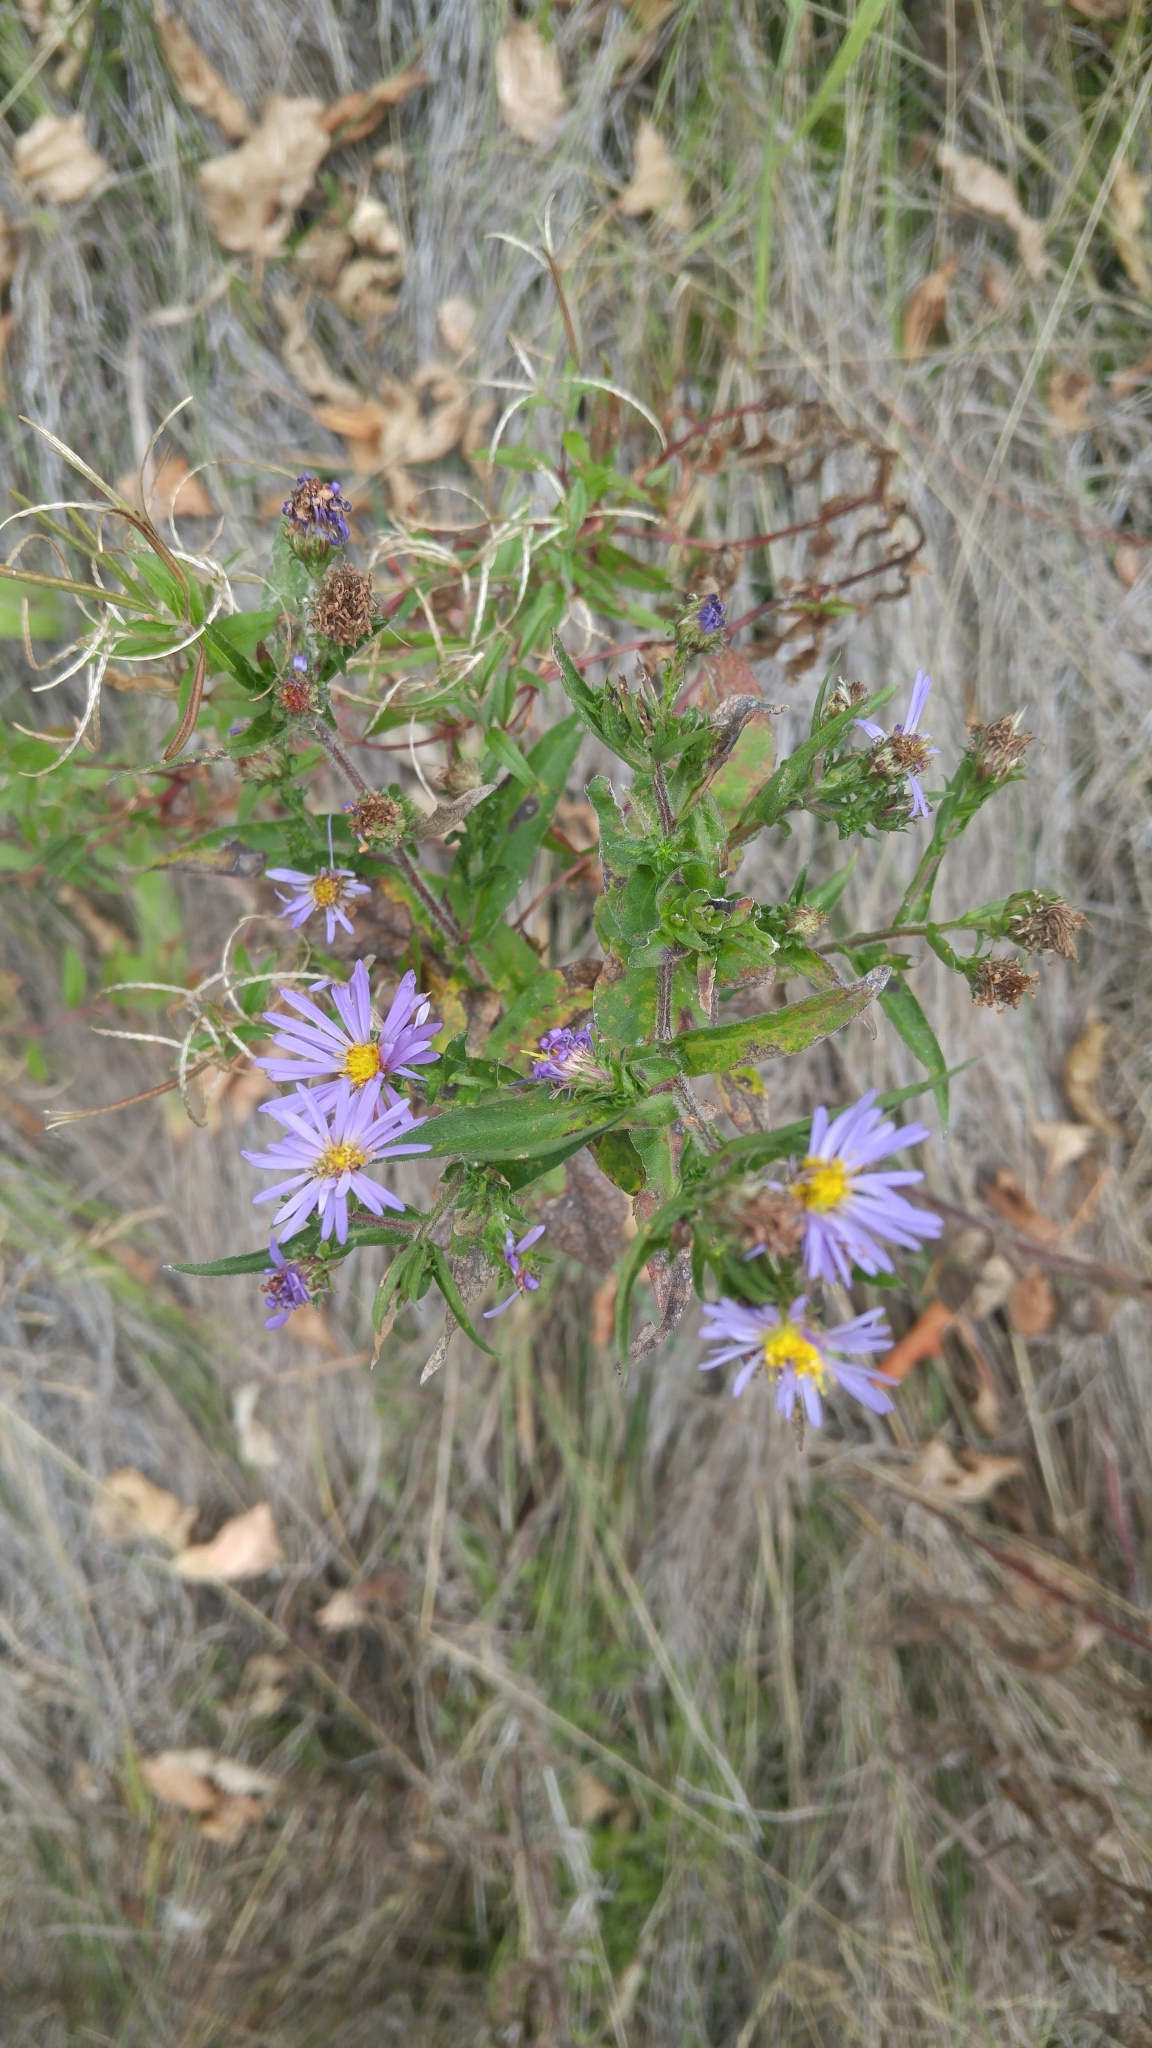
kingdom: Plantae
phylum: Tracheophyta
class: Magnoliopsida
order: Asterales
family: Asteraceae
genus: Symphyotrichum
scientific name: Symphyotrichum puniceum
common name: Bog aster
